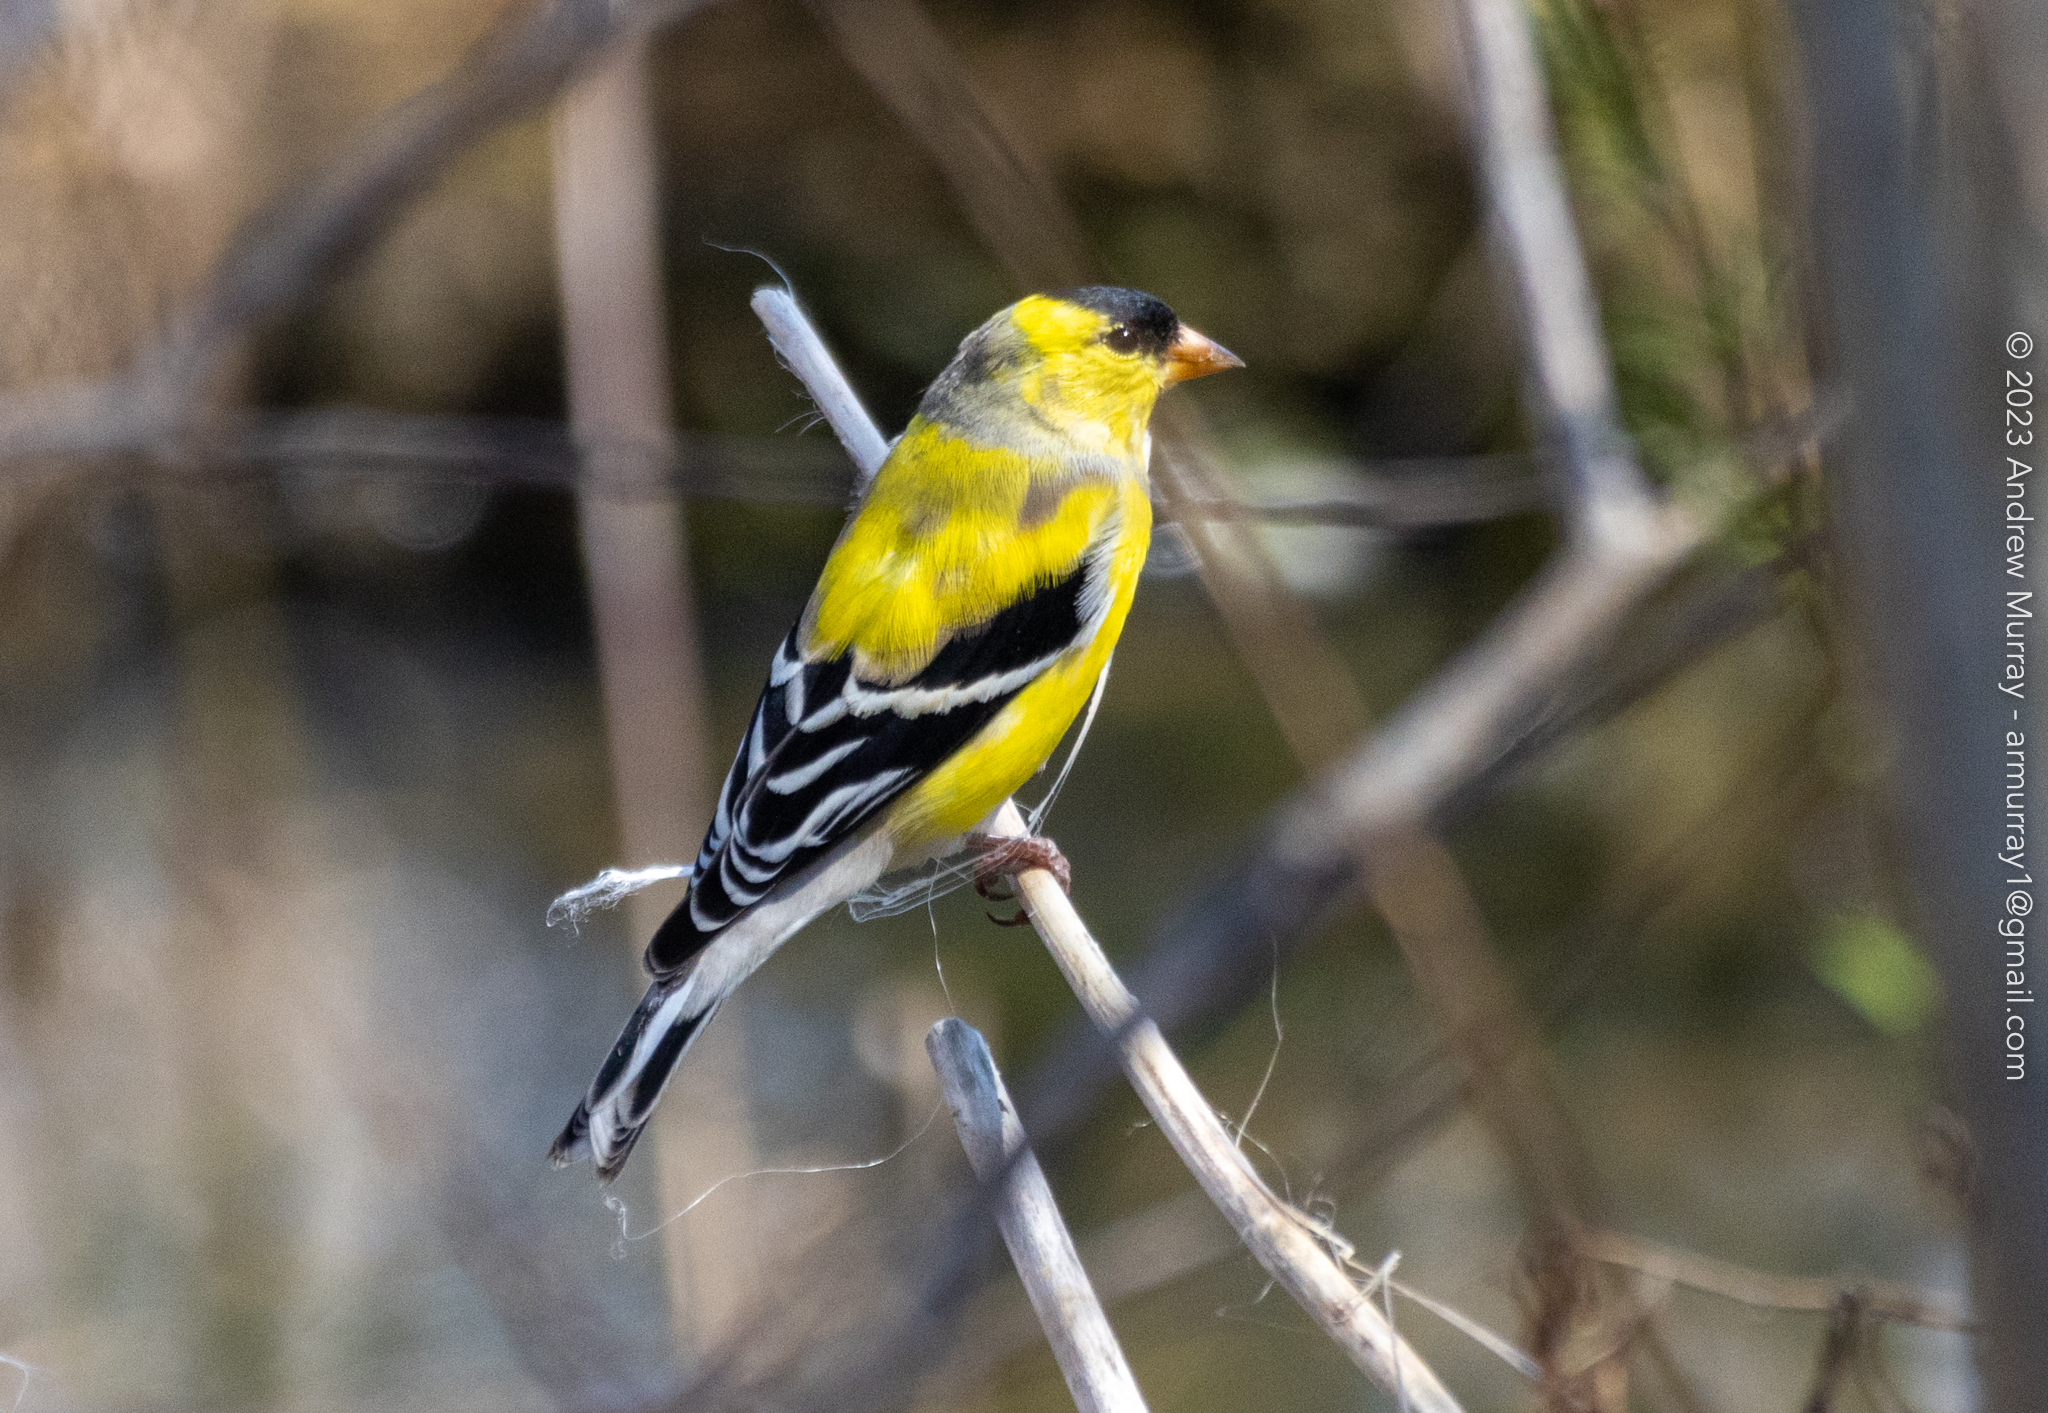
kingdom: Animalia
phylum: Chordata
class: Aves
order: Passeriformes
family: Fringillidae
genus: Spinus
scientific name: Spinus tristis
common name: American goldfinch
